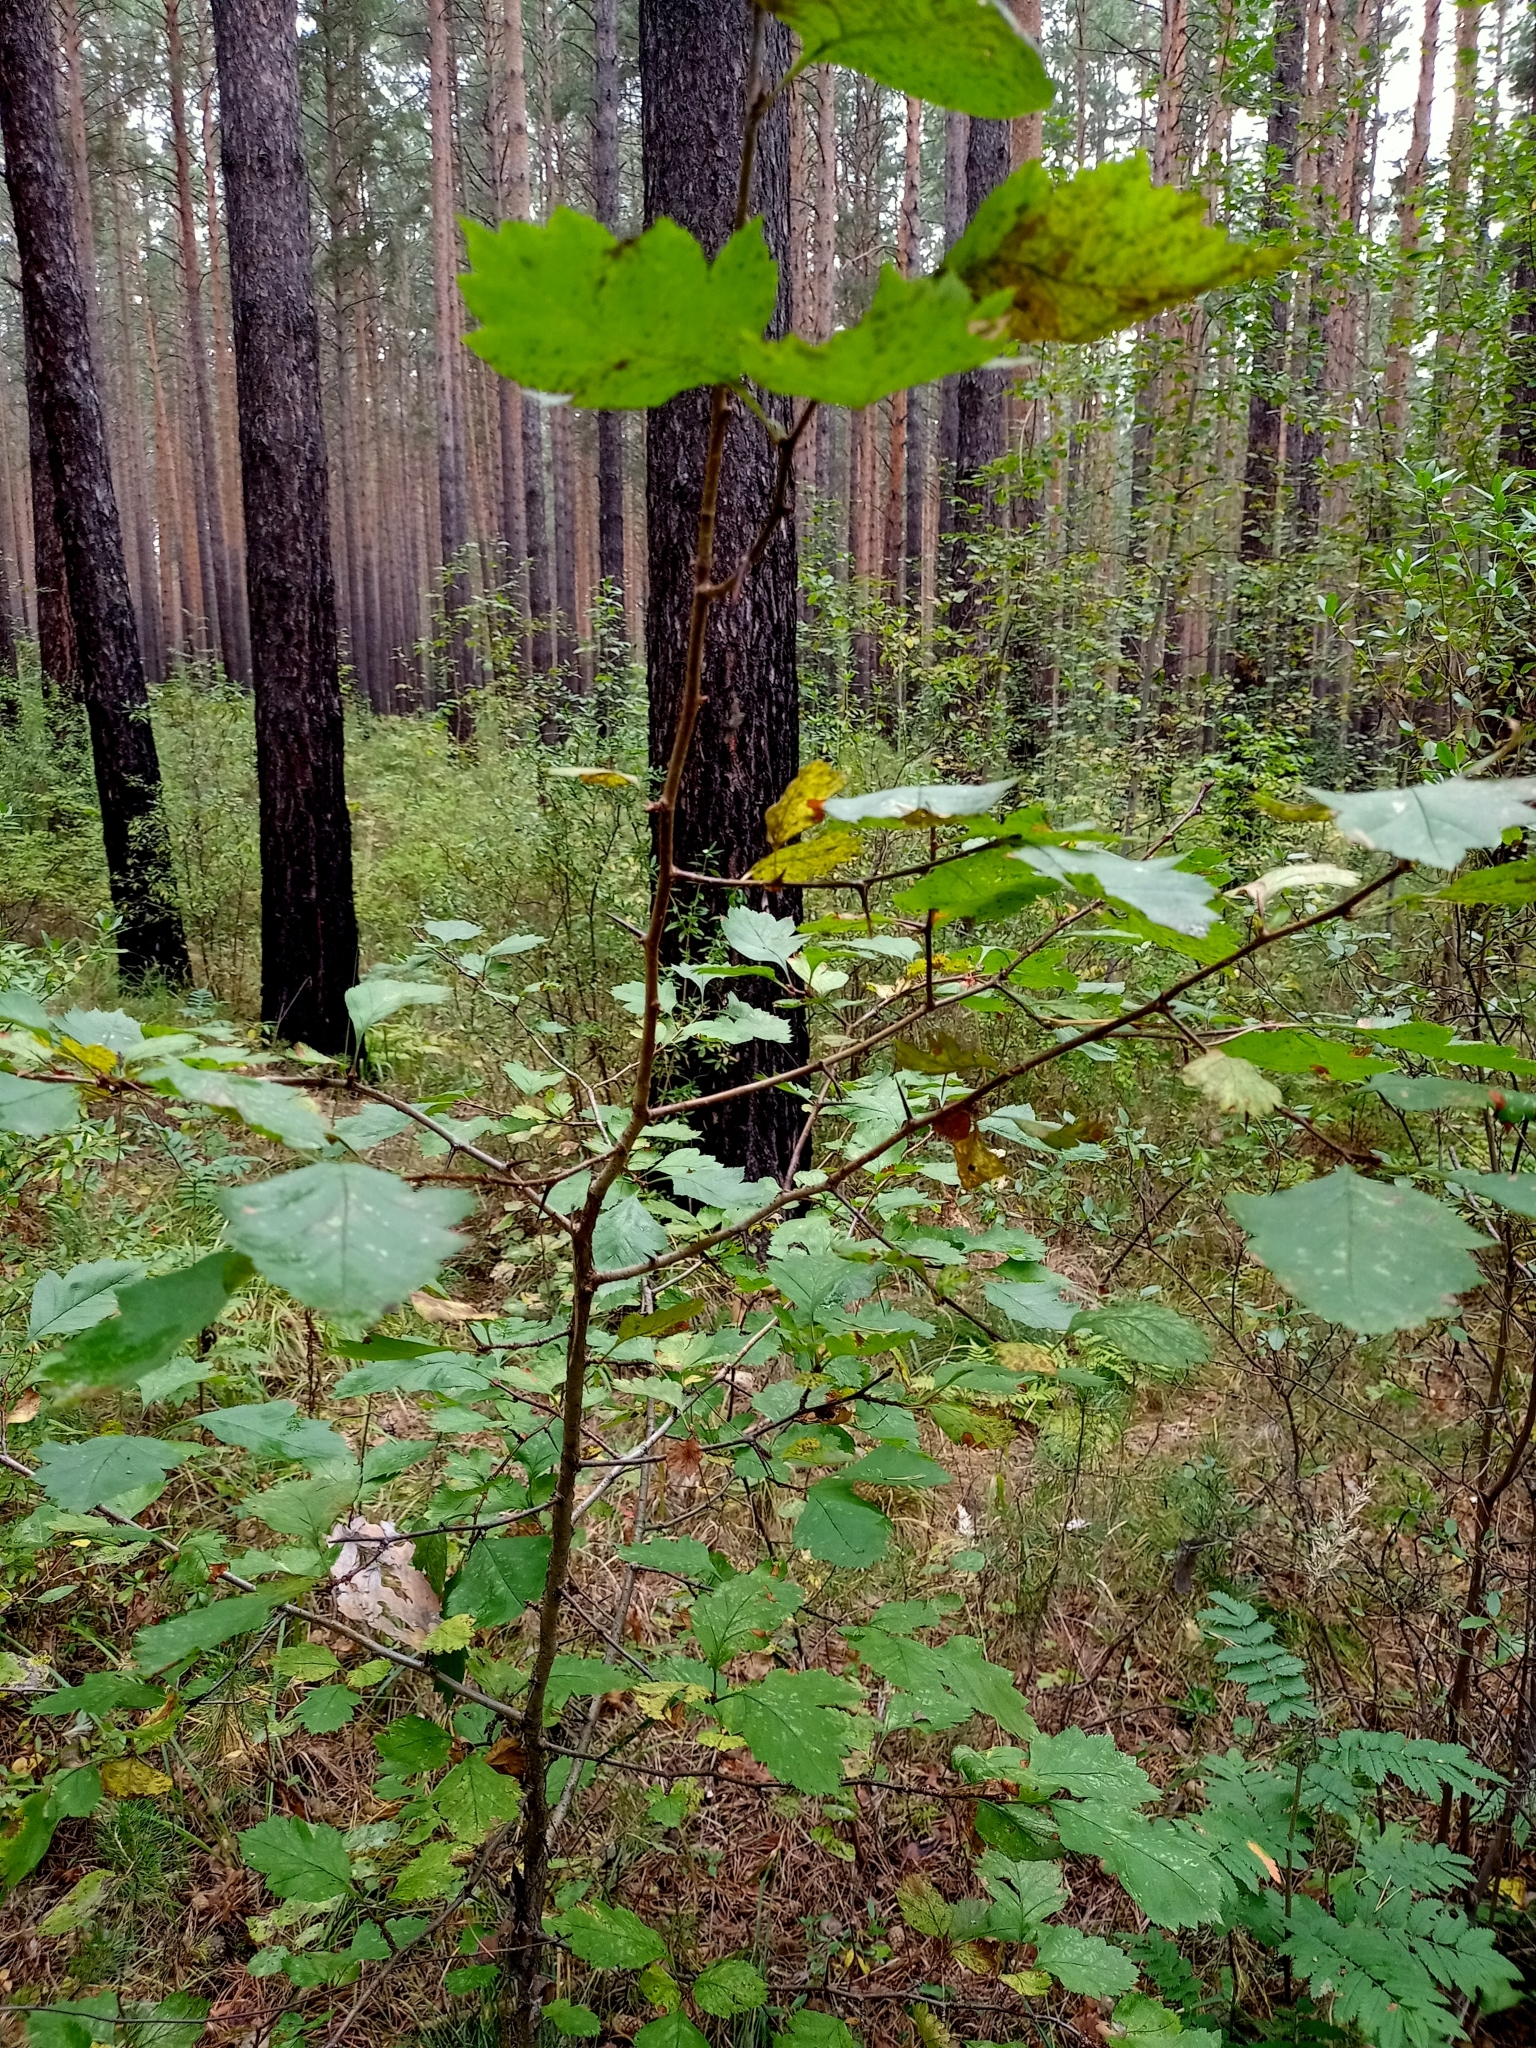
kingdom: Plantae
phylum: Tracheophyta
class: Magnoliopsida
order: Rosales
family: Rosaceae
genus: Crataegus
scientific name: Crataegus sanguinea
